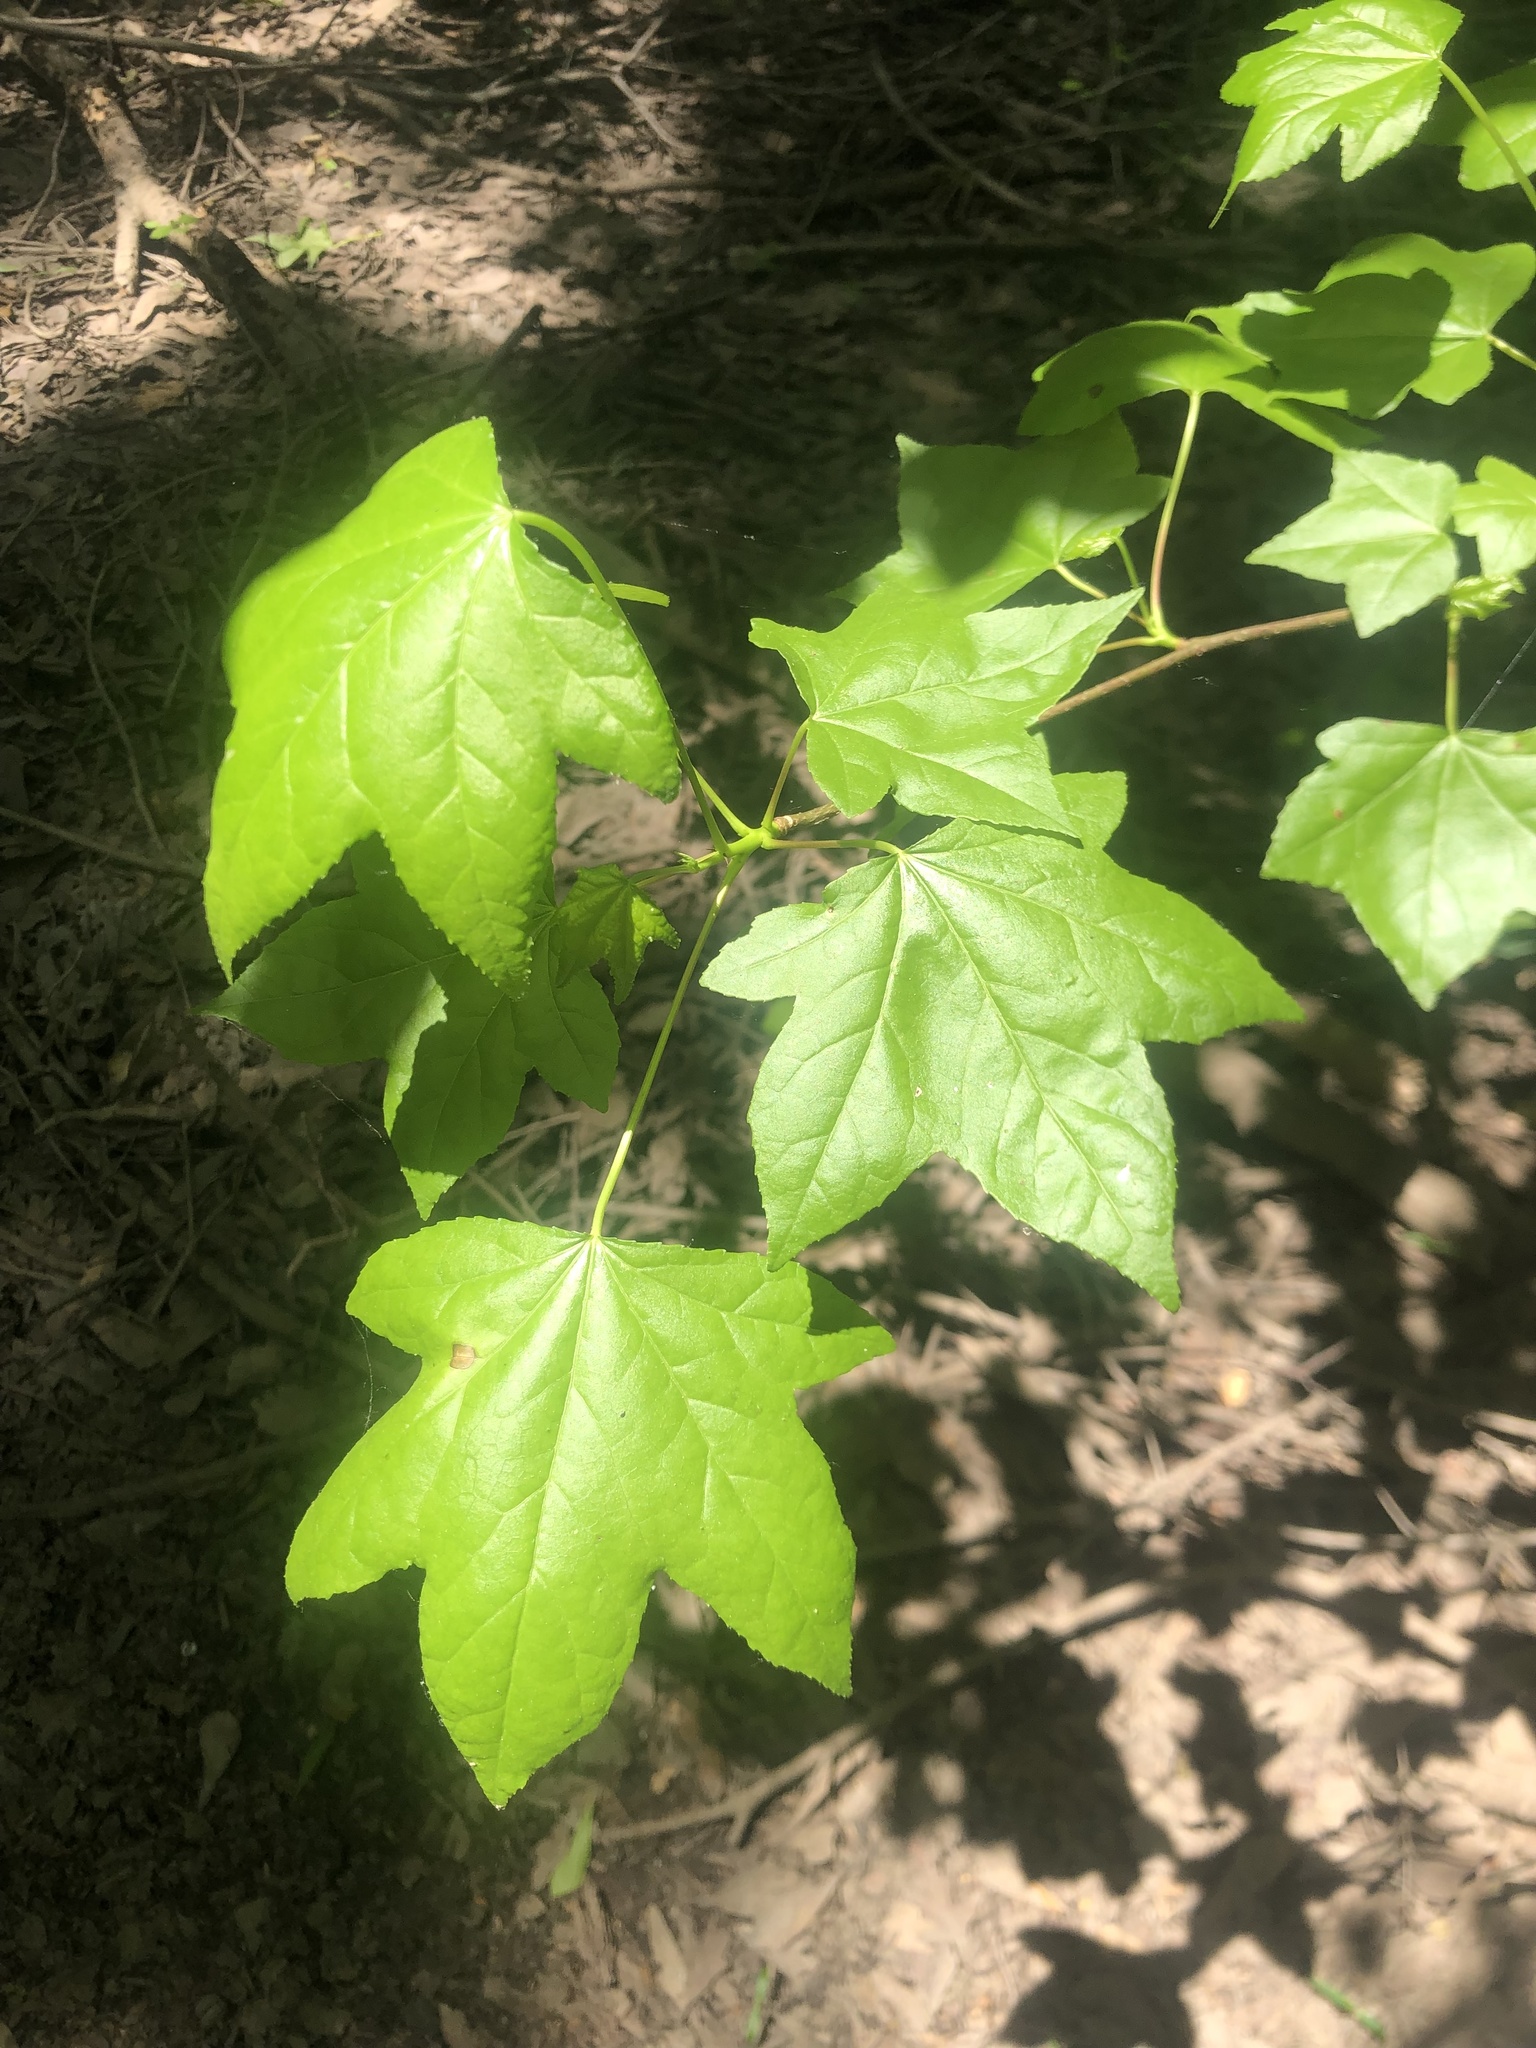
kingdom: Plantae
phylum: Tracheophyta
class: Magnoliopsida
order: Saxifragales
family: Altingiaceae
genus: Liquidambar
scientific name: Liquidambar styraciflua
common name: Sweet gum
